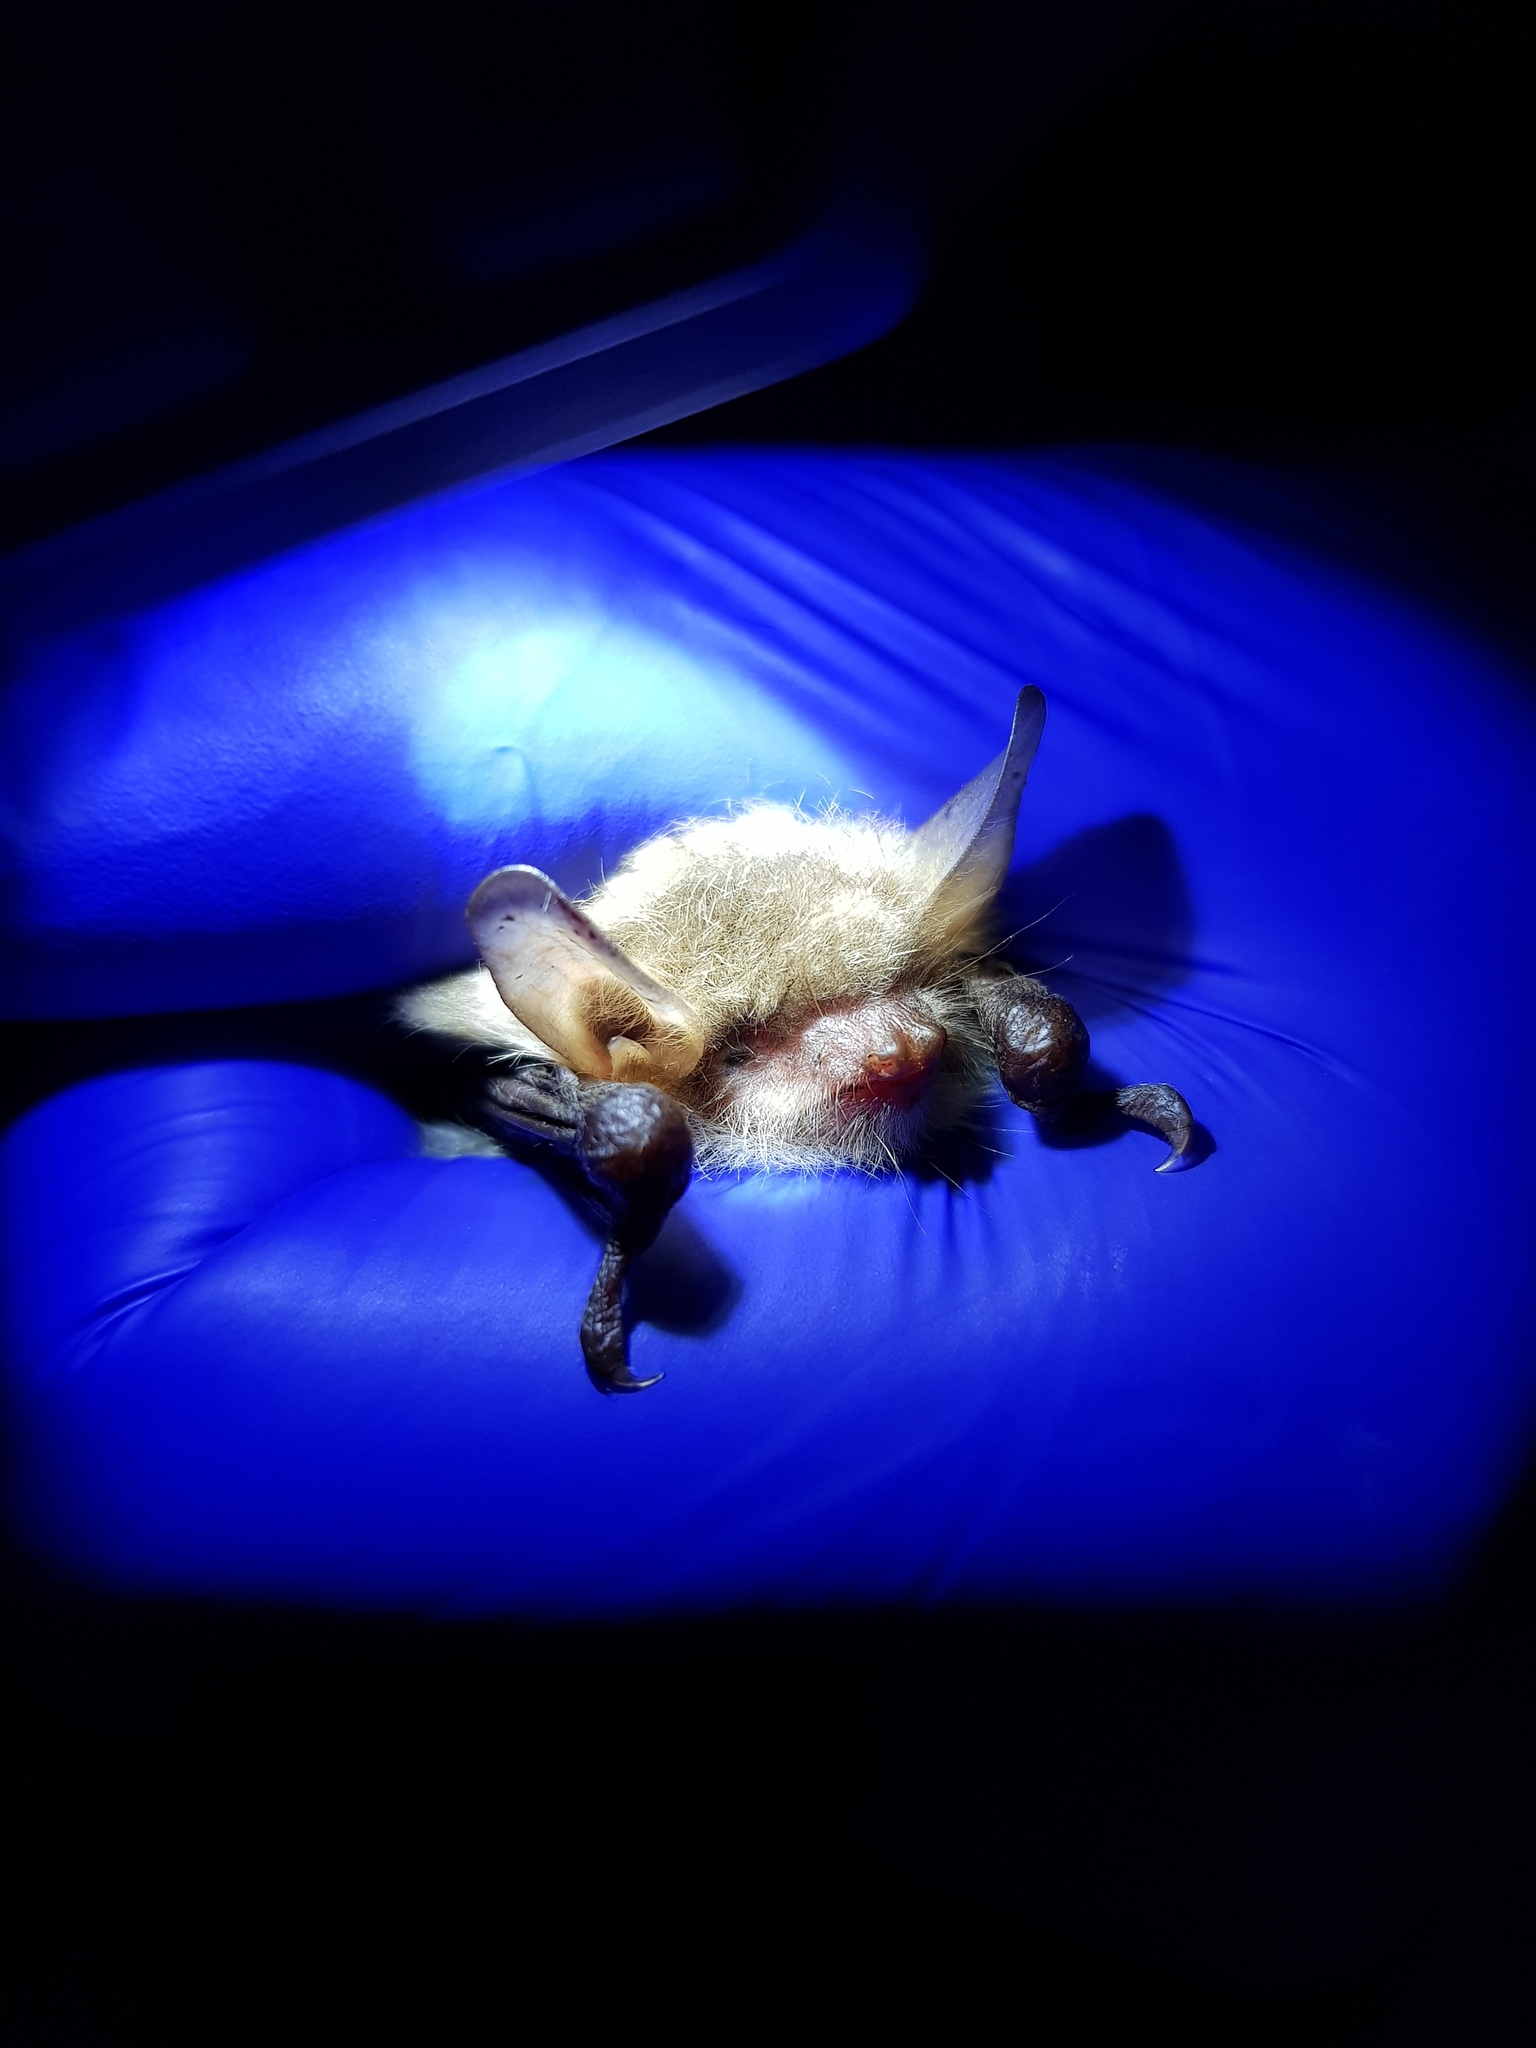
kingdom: Animalia
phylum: Chordata
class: Mammalia
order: Chiroptera
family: Vespertilionidae
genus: Myotis
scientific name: Myotis nattereri
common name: Natterer's bat
